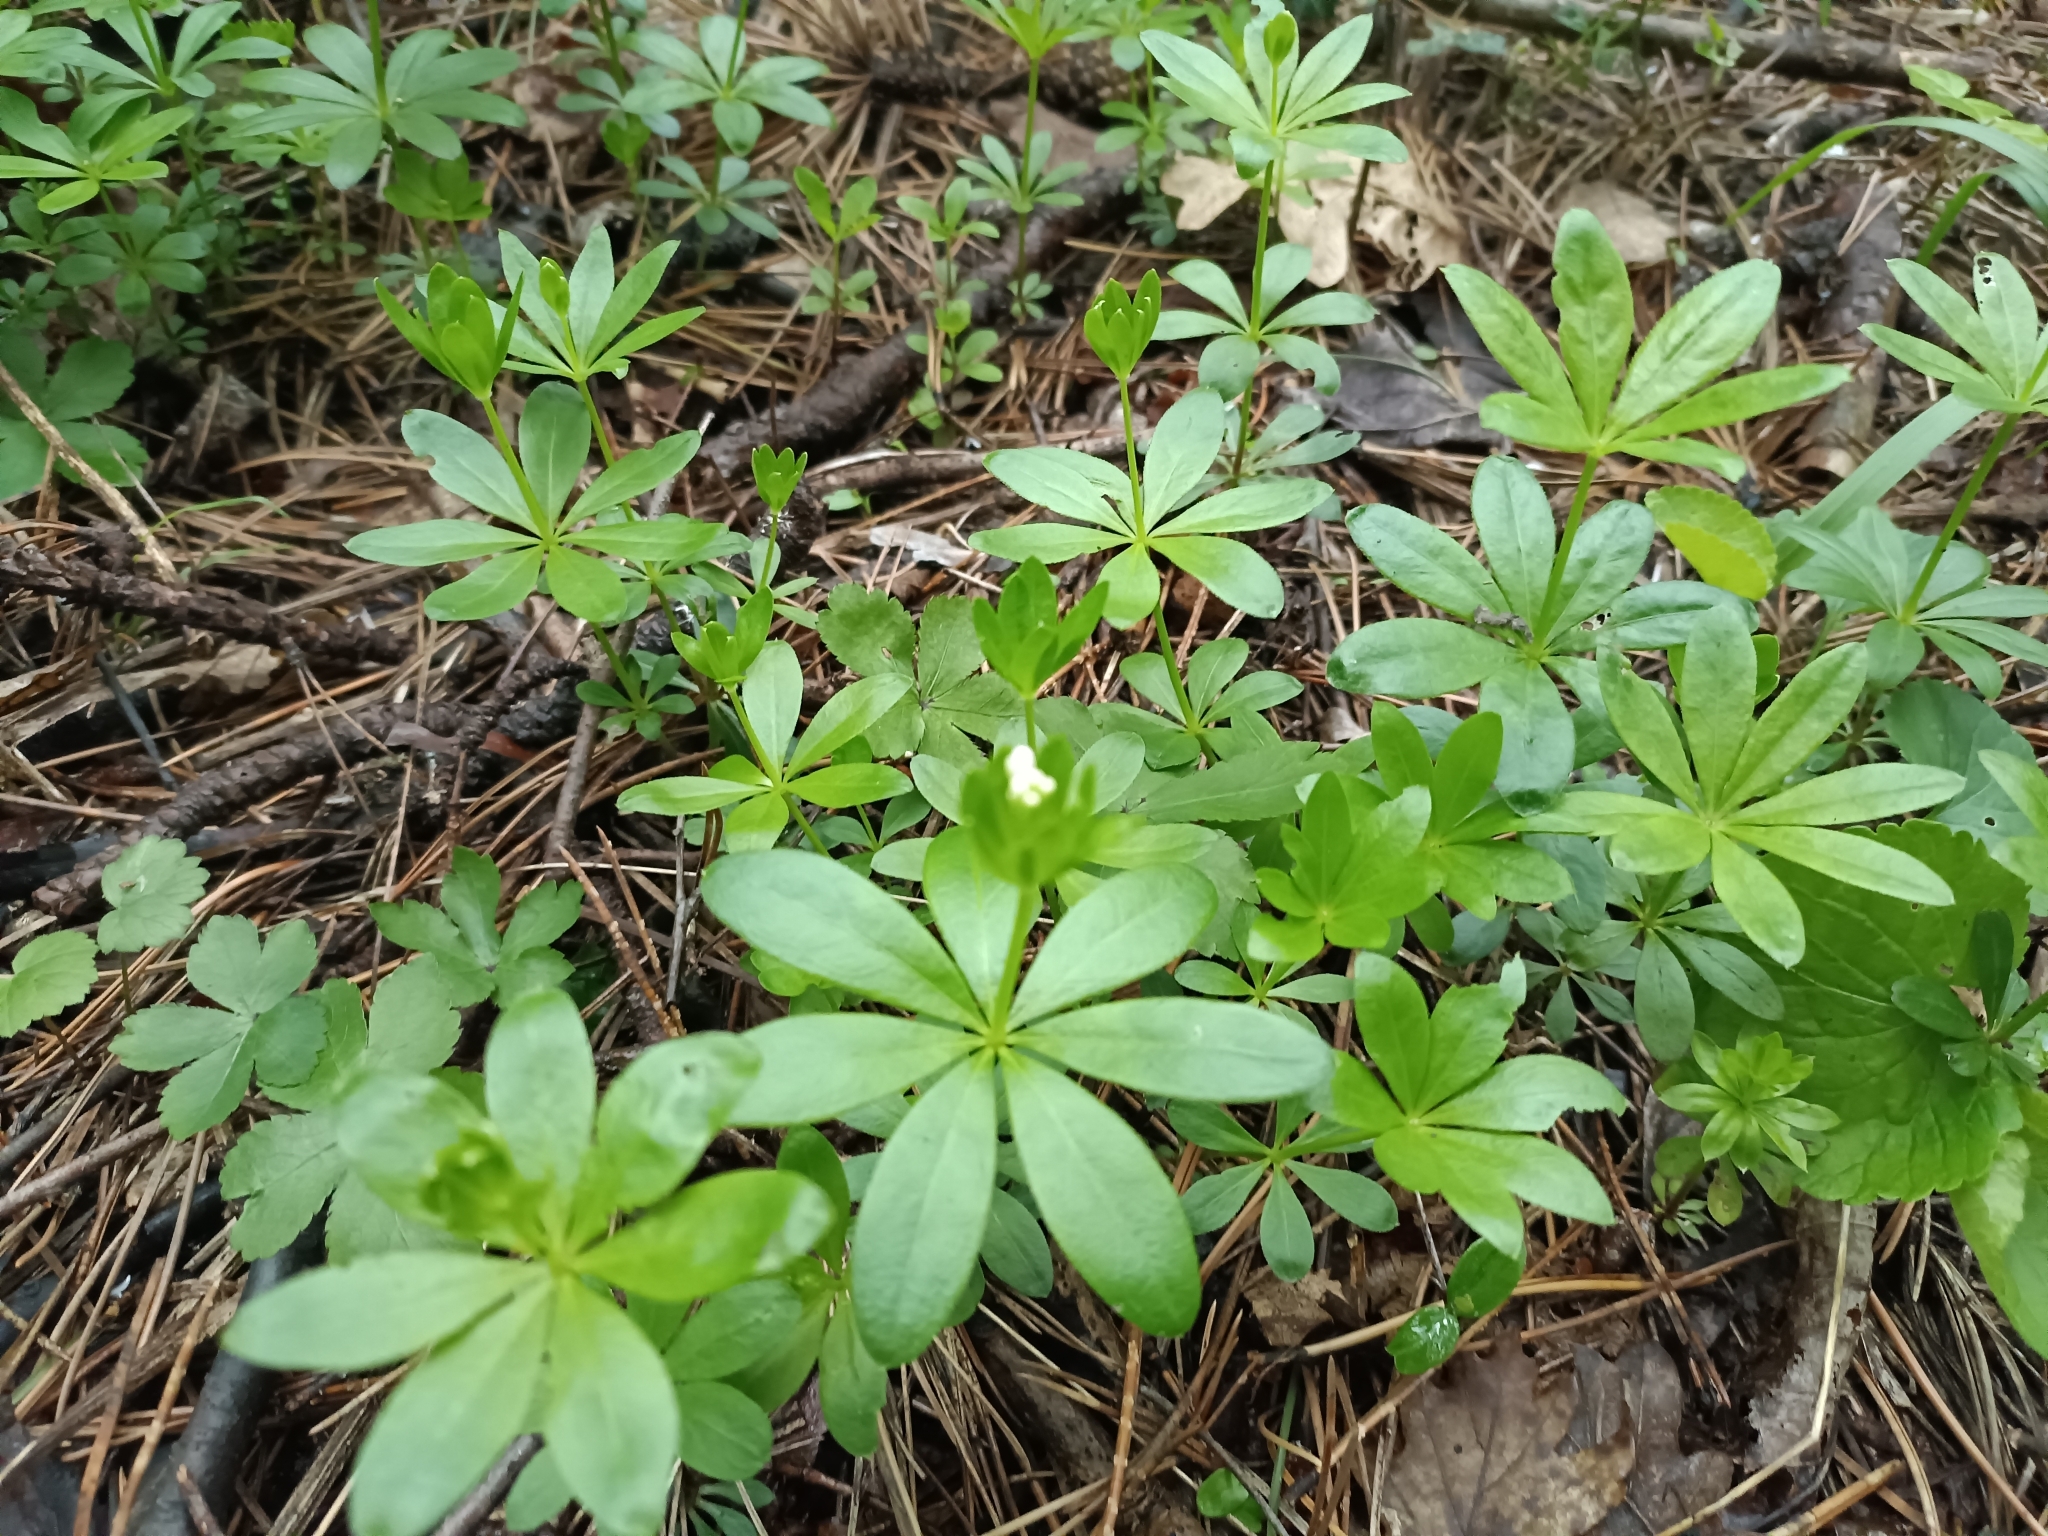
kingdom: Plantae
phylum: Tracheophyta
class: Magnoliopsida
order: Gentianales
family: Rubiaceae
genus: Galium
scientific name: Galium odoratum
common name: Sweet woodruff
